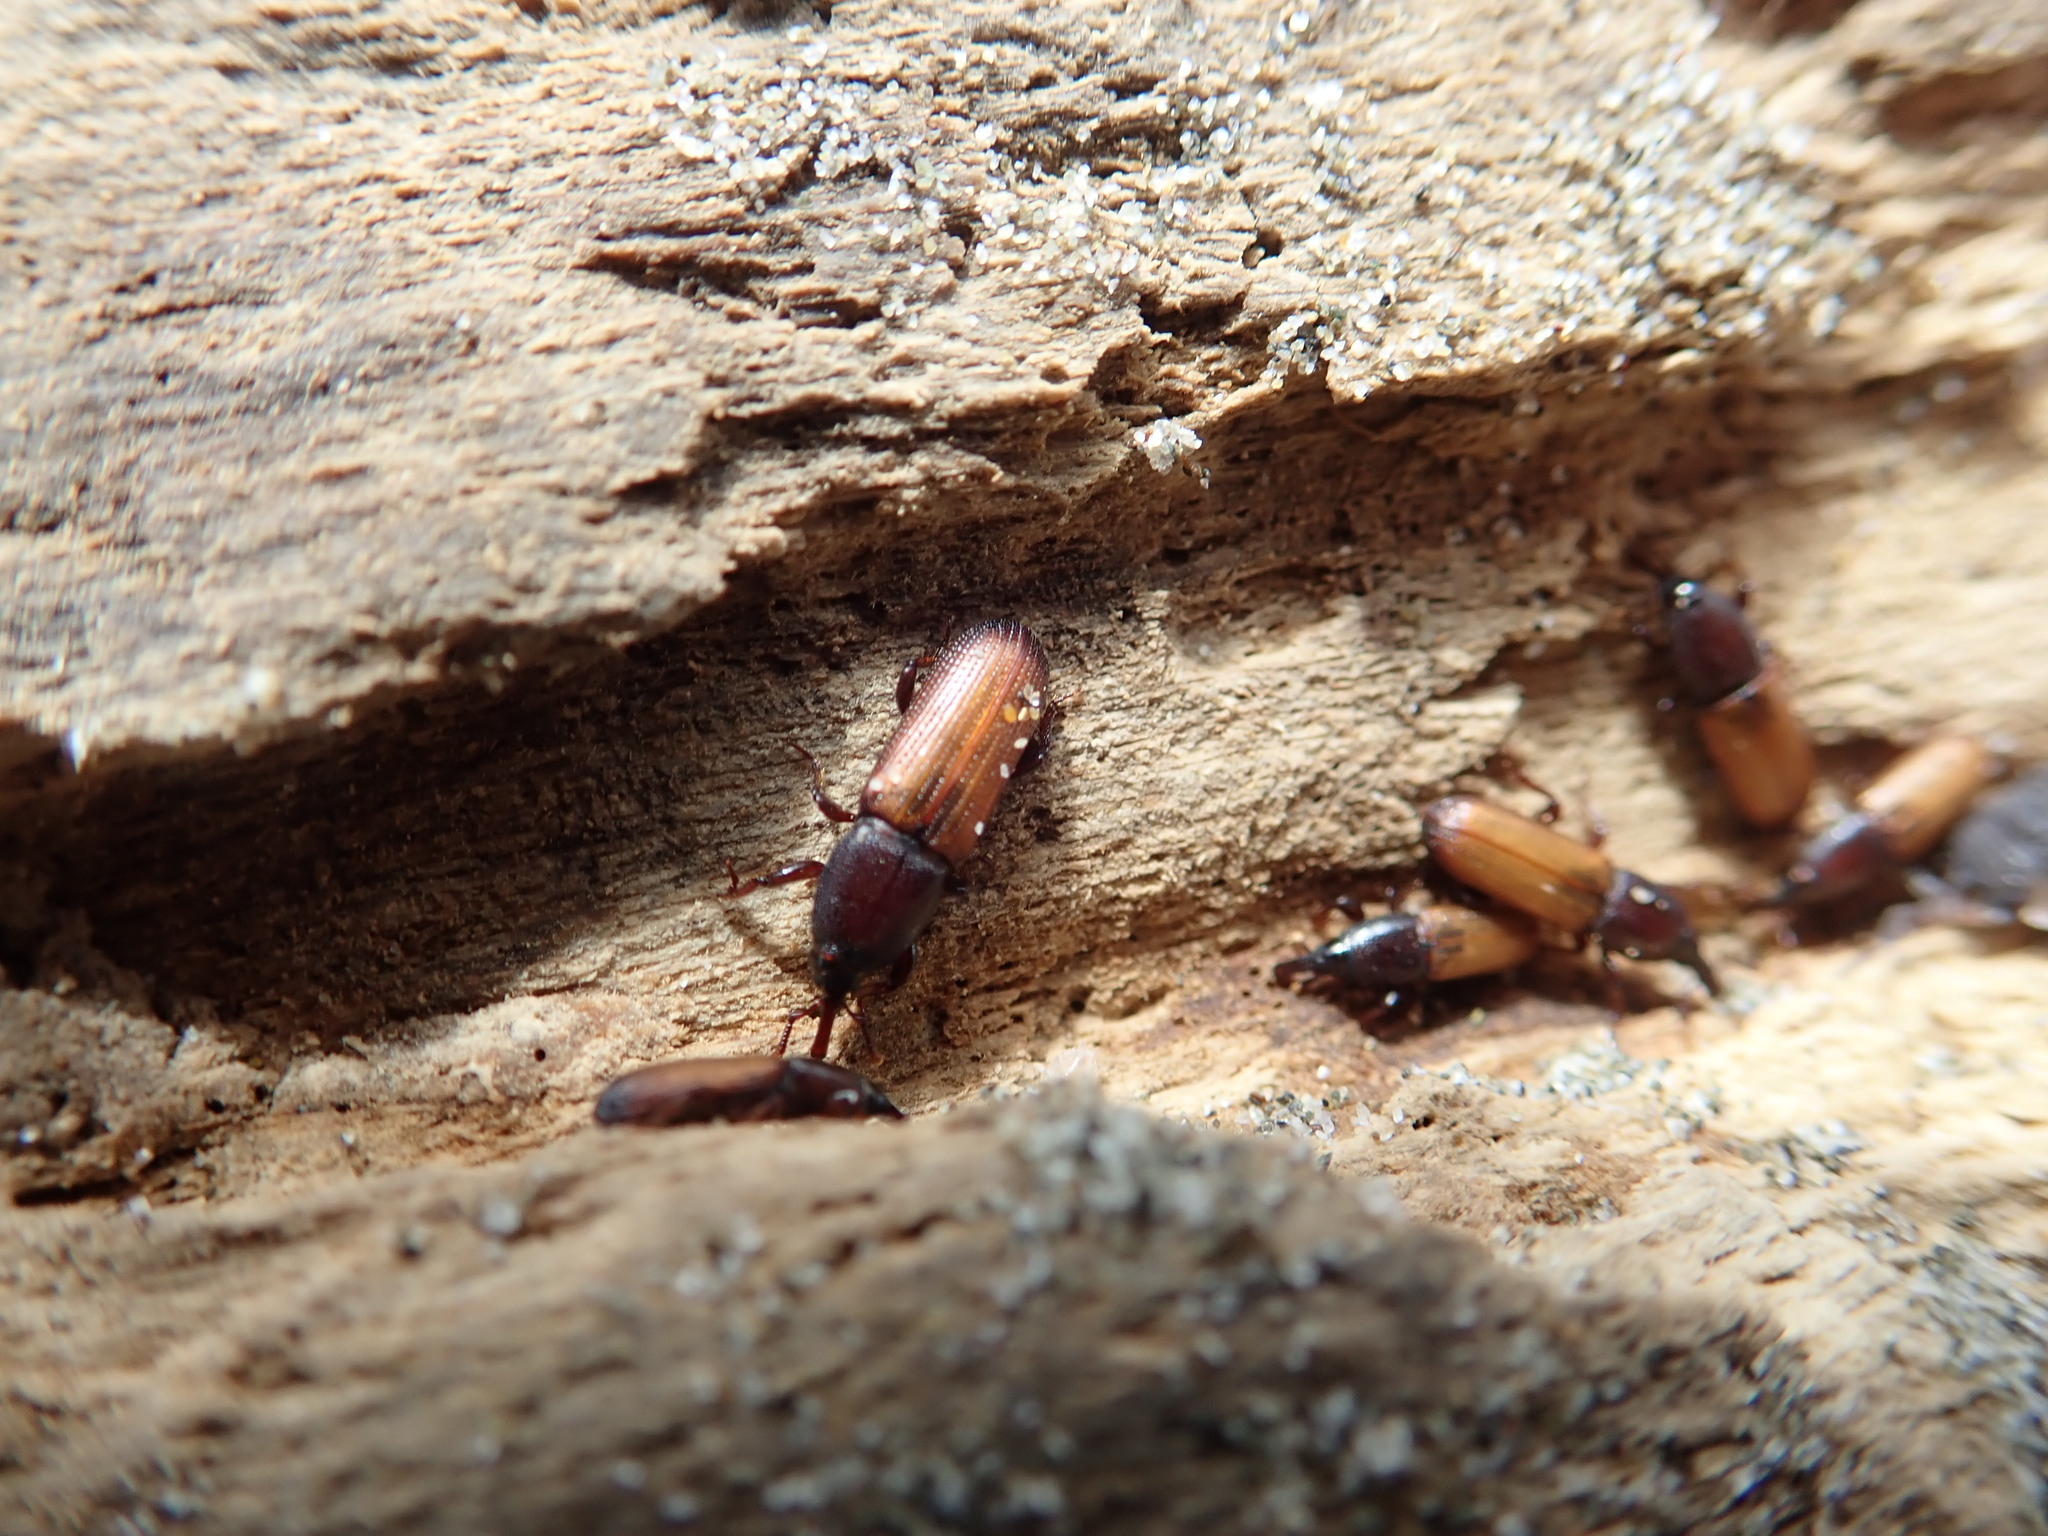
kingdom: Animalia
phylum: Arthropoda
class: Insecta
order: Coleoptera
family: Curculionidae
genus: Mesites
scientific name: Mesites pallidipennis
